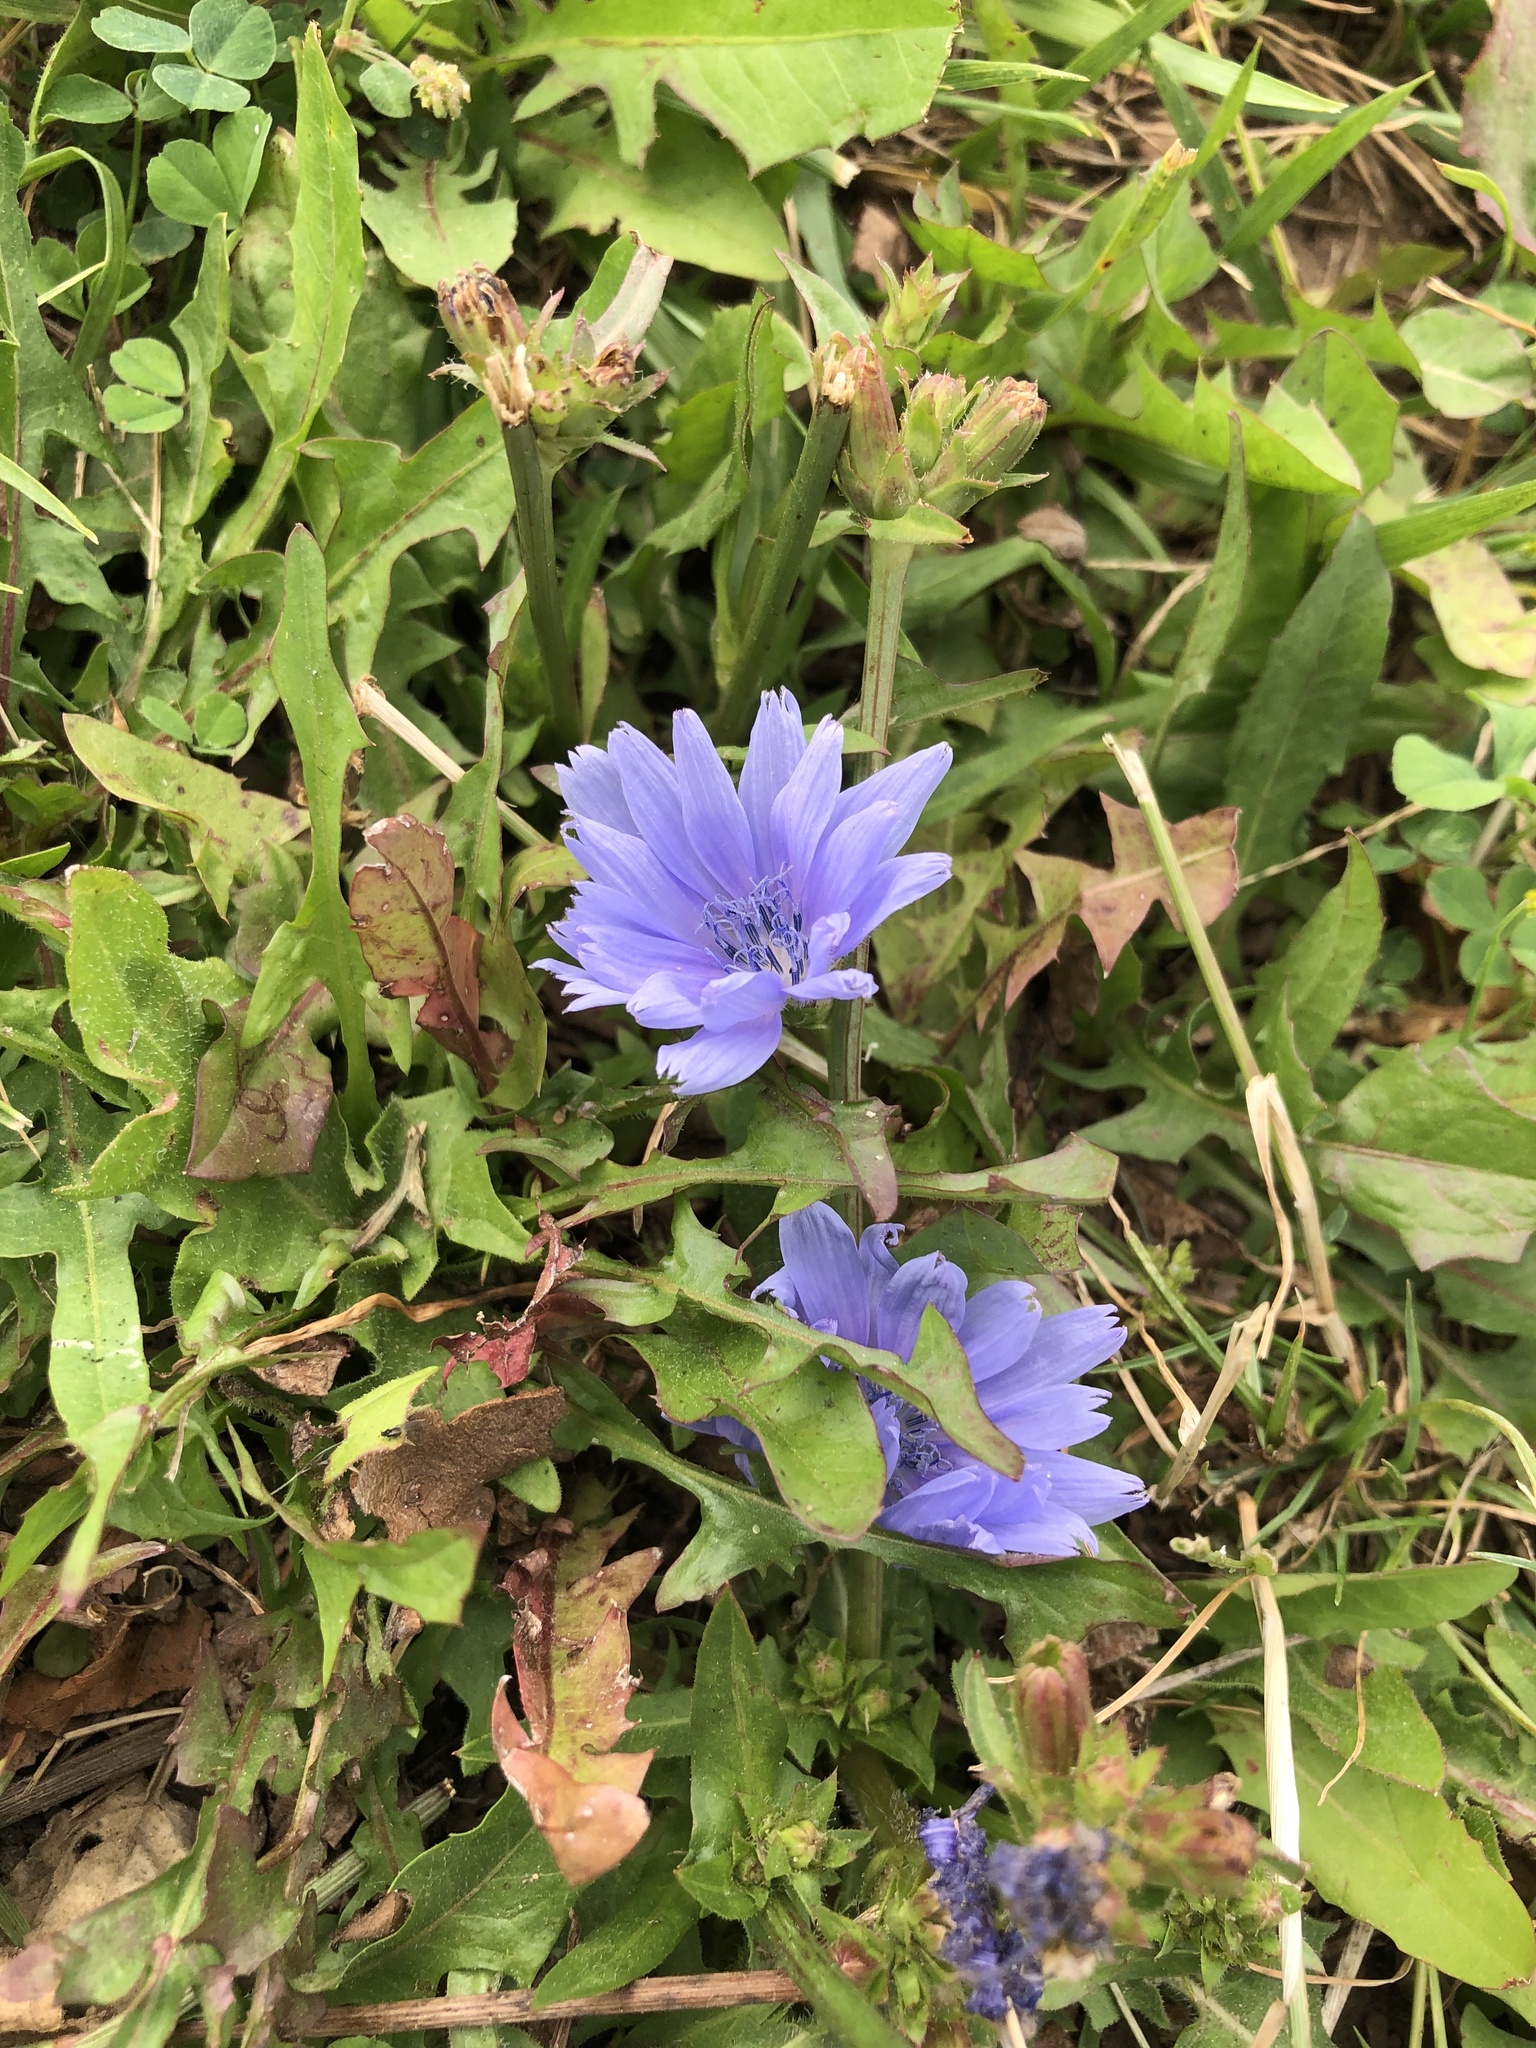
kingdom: Plantae
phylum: Tracheophyta
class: Magnoliopsida
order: Asterales
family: Asteraceae
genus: Cichorium
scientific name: Cichorium intybus
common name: Chicory
